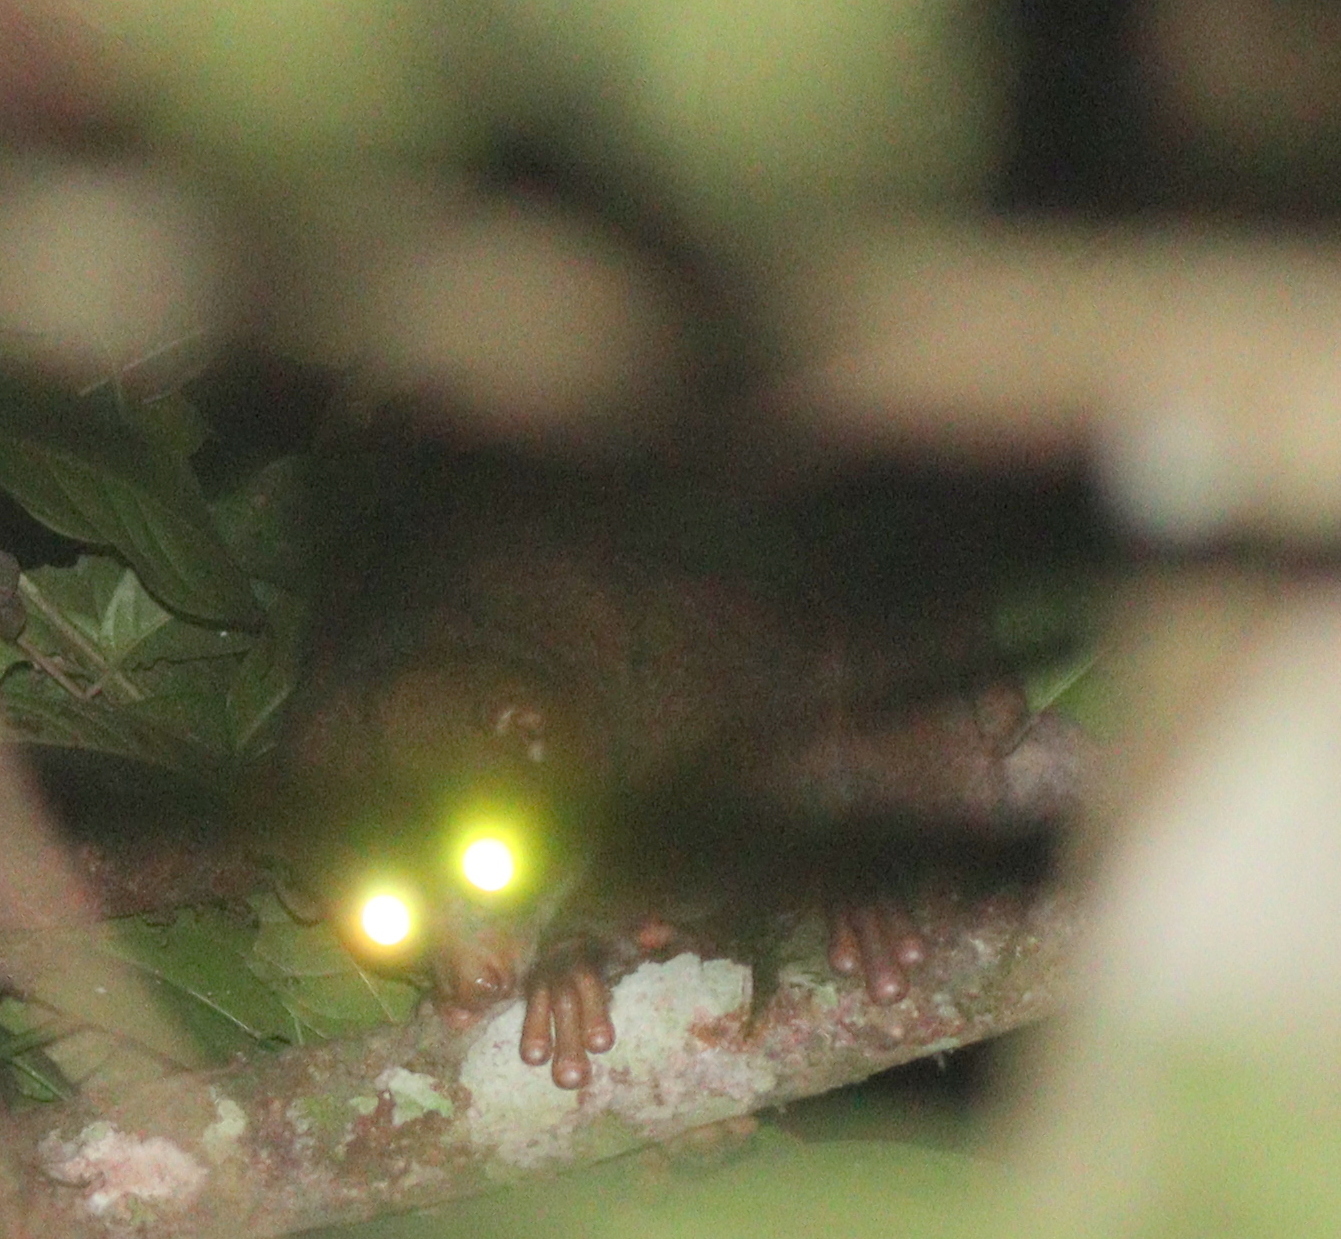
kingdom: Animalia
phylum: Chordata
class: Mammalia
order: Primates
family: Lorisidae
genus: Perodicticus
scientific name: Perodicticus potto
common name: Potto
